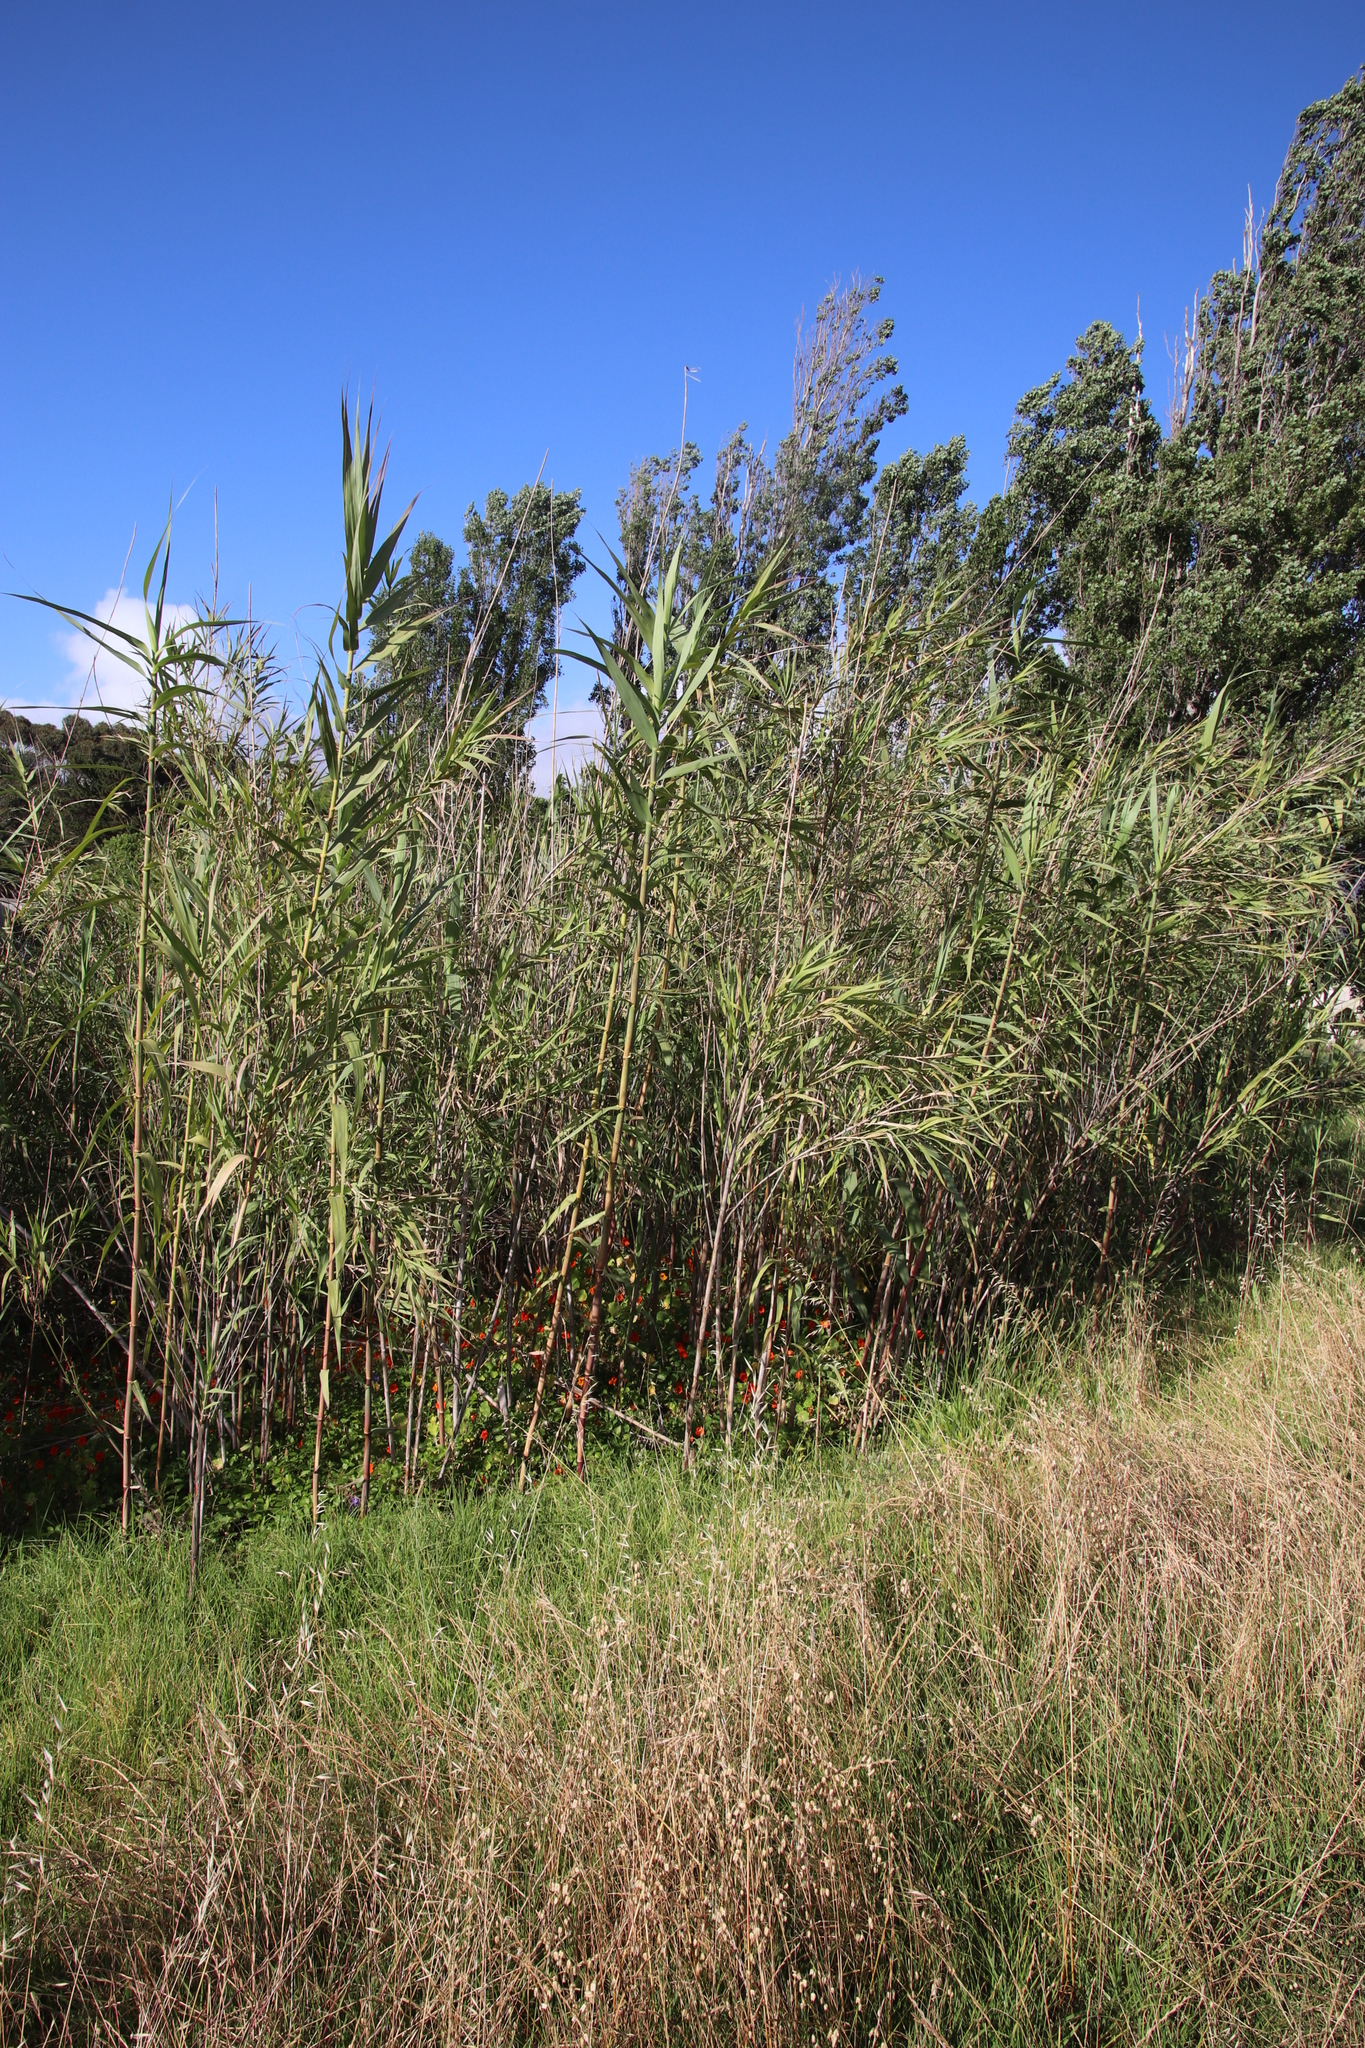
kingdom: Plantae
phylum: Tracheophyta
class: Liliopsida
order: Poales
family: Poaceae
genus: Arundo
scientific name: Arundo donax
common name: Giant reed
